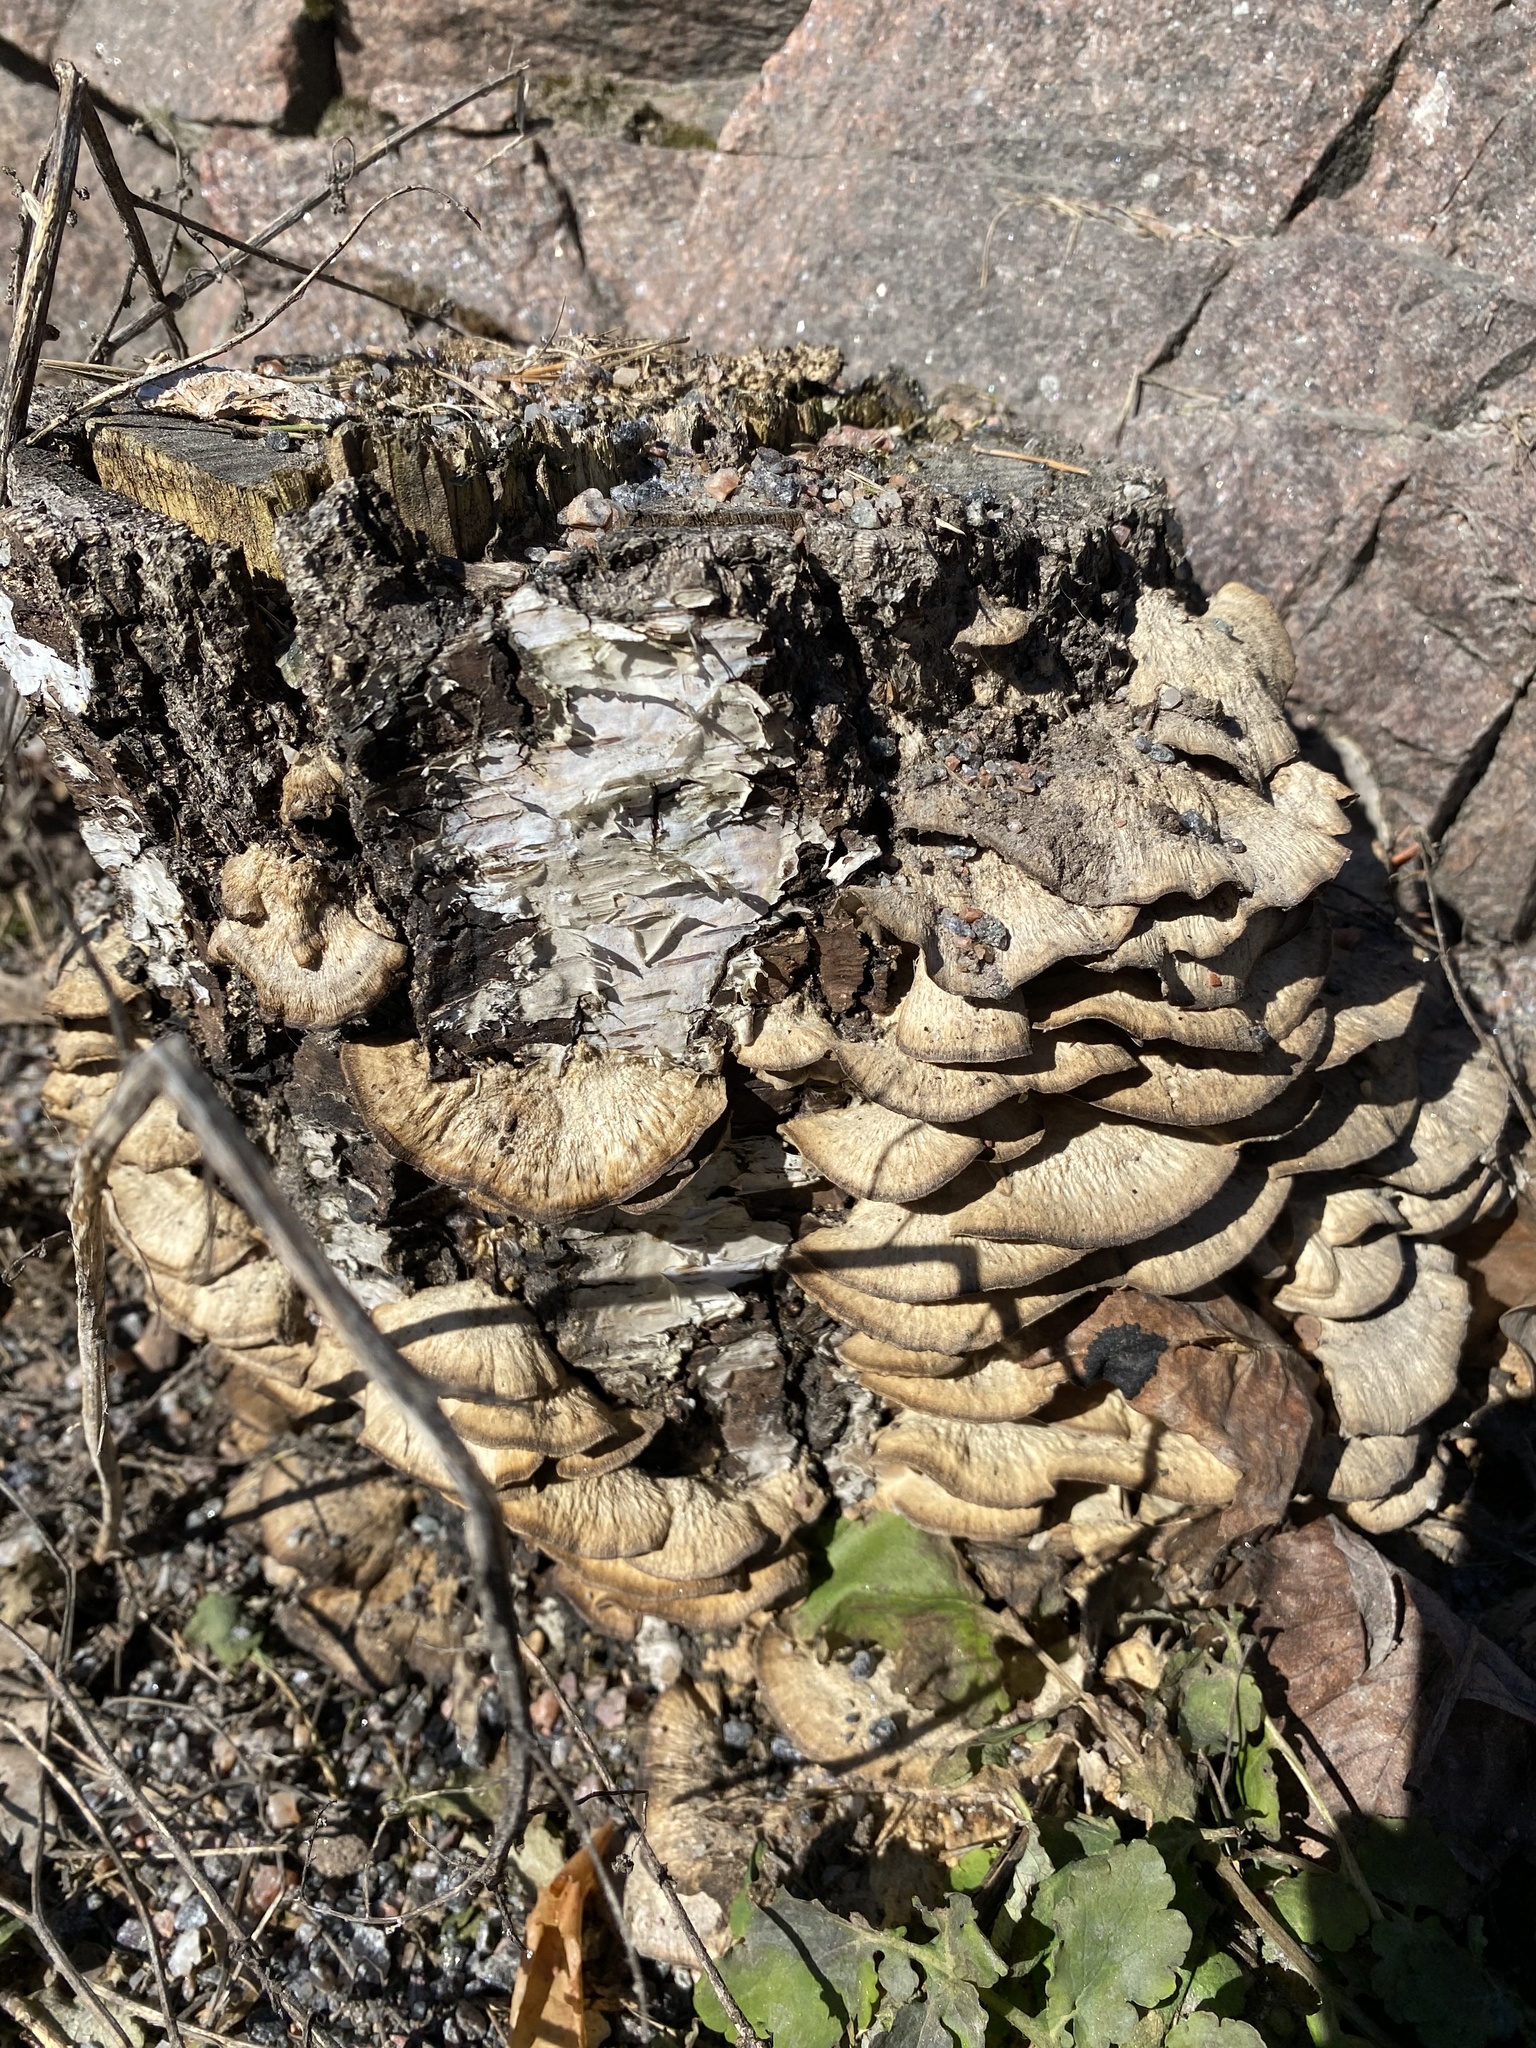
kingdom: Fungi
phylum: Basidiomycota
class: Agaricomycetes
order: Polyporales
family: Phanerochaetaceae
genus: Bjerkandera
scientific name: Bjerkandera adusta
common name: Smoky bracket
